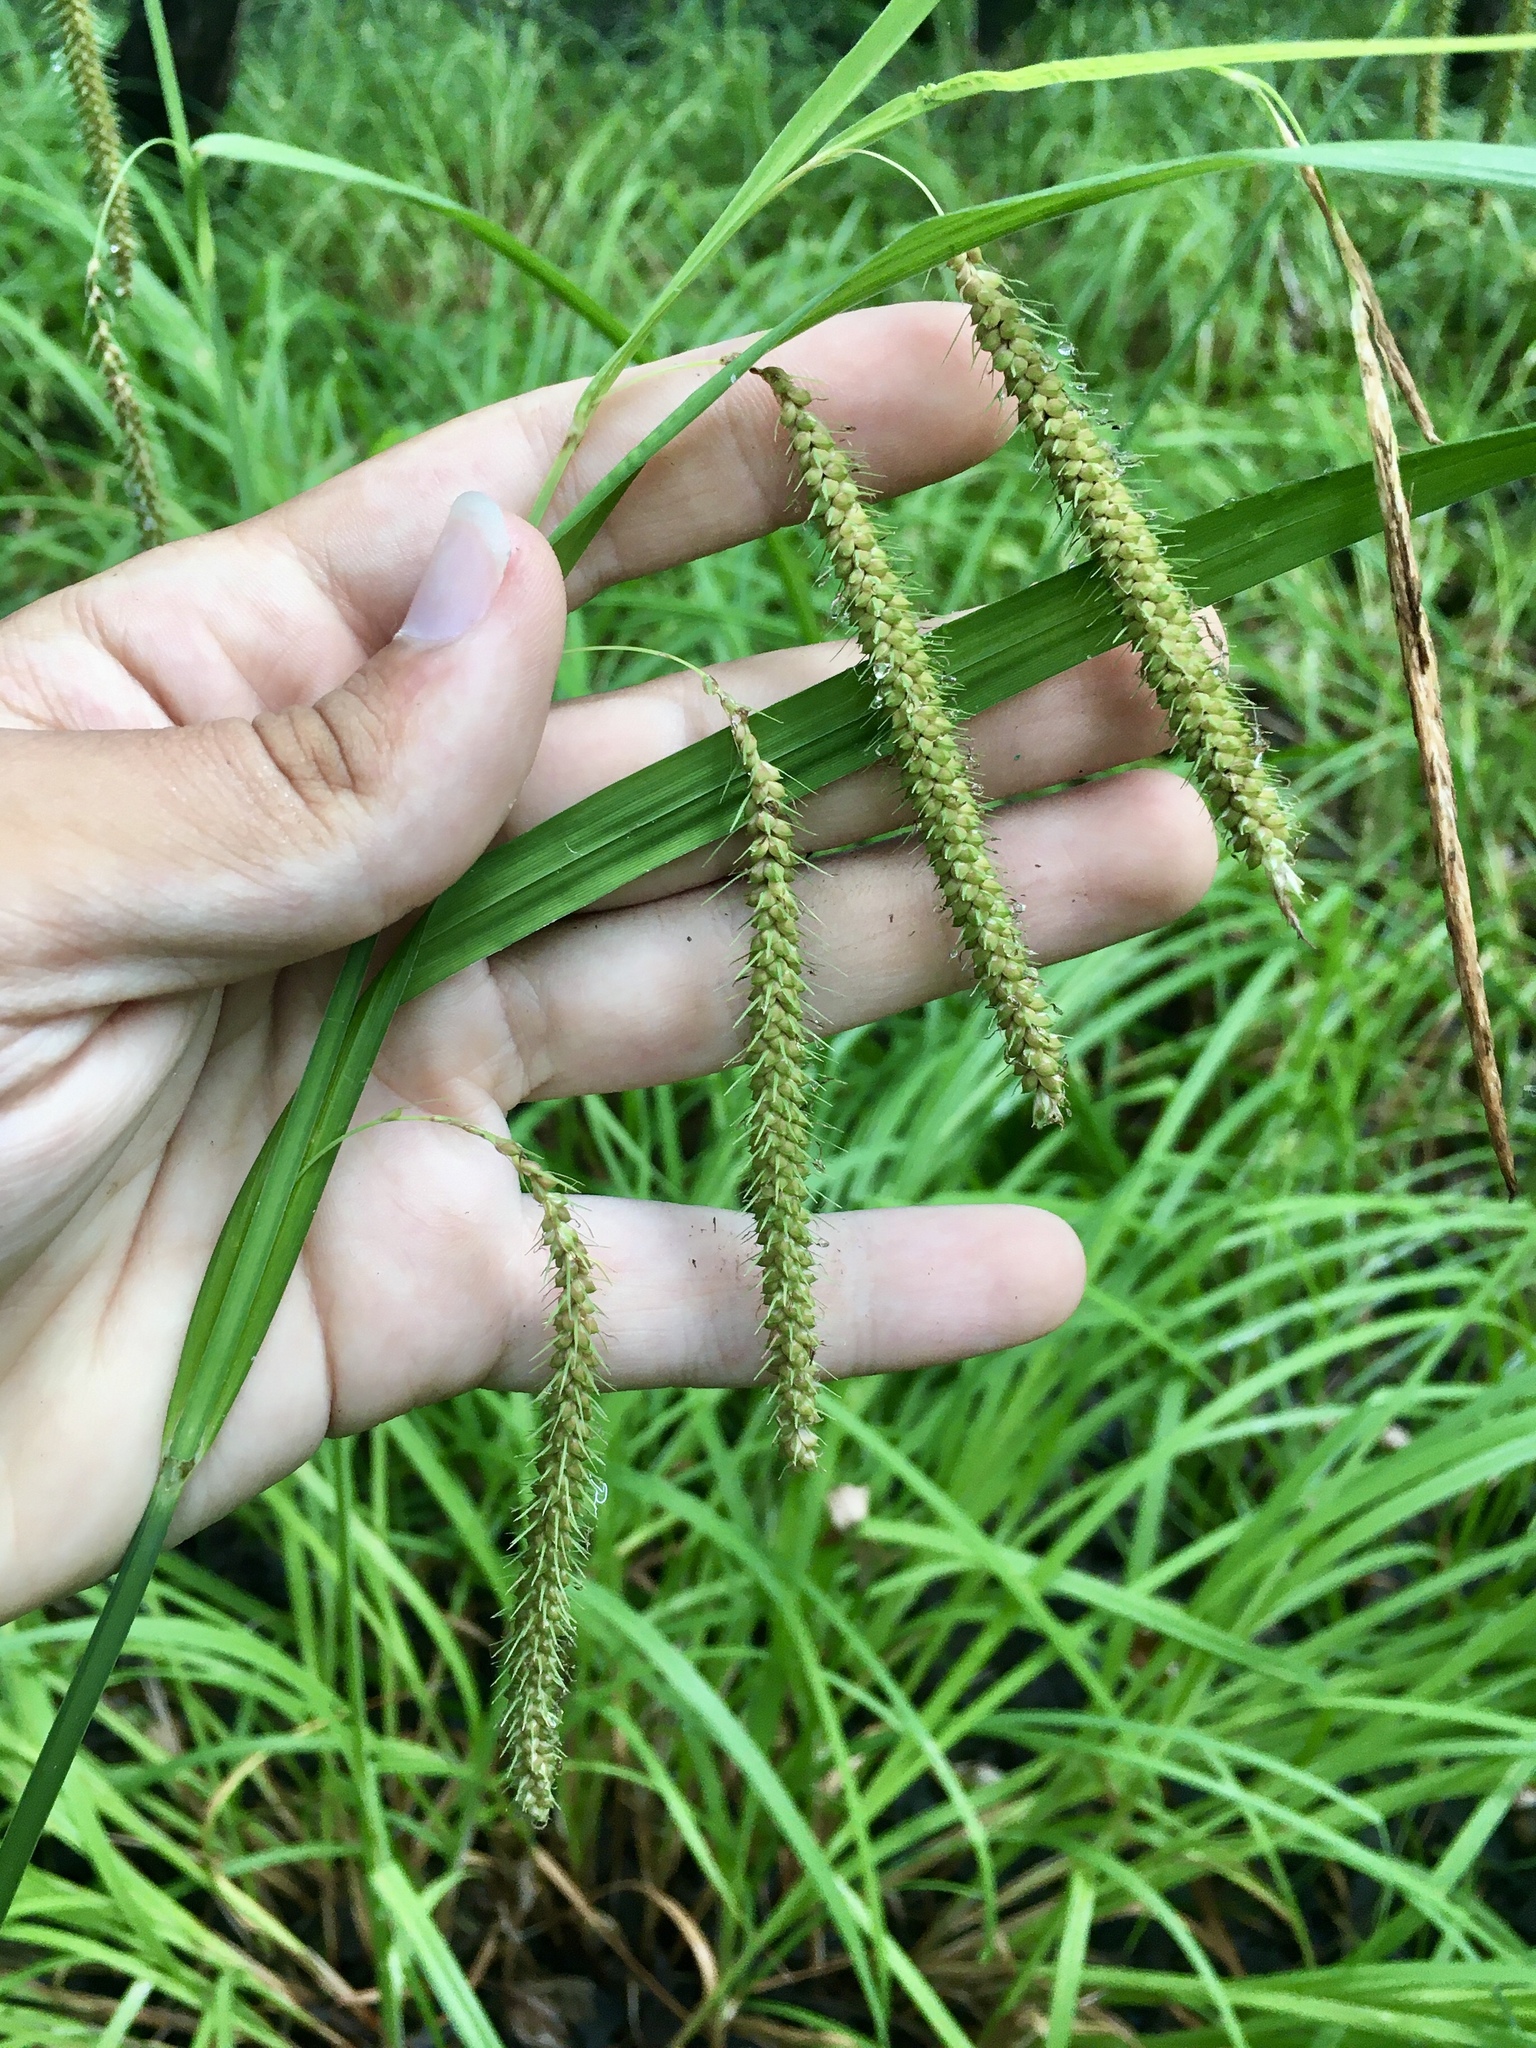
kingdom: Plantae
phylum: Tracheophyta
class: Liliopsida
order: Poales
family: Cyperaceae
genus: Carex
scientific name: Carex crinita
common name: Fringed sedge
